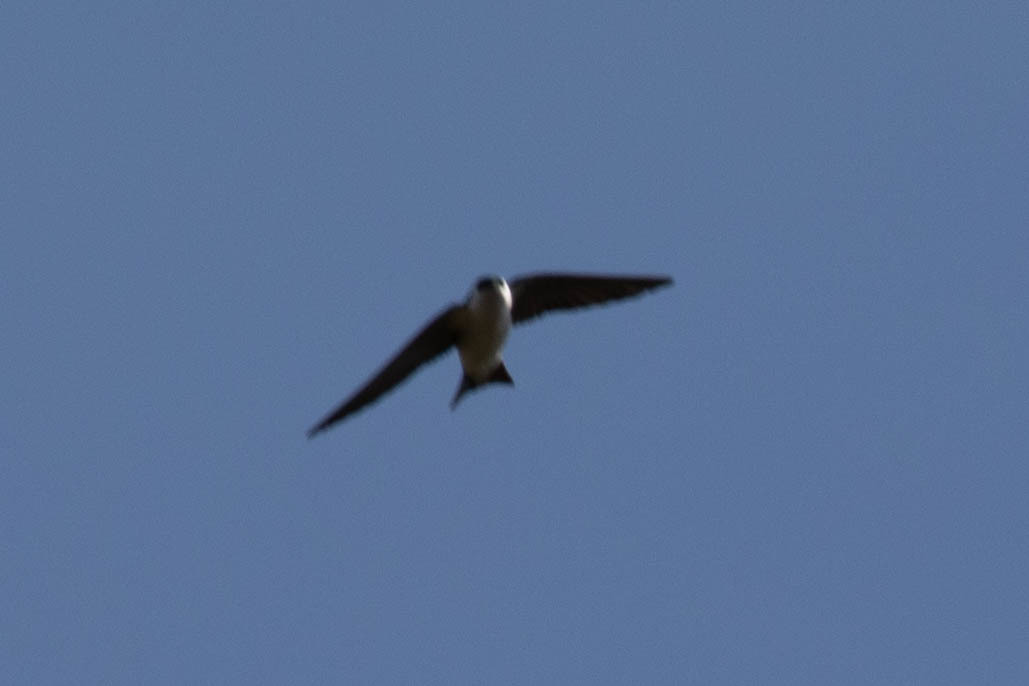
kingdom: Animalia
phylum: Chordata
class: Aves
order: Passeriformes
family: Hirundinidae
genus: Tachycineta
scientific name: Tachycineta thalassina
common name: Violet-green swallow
